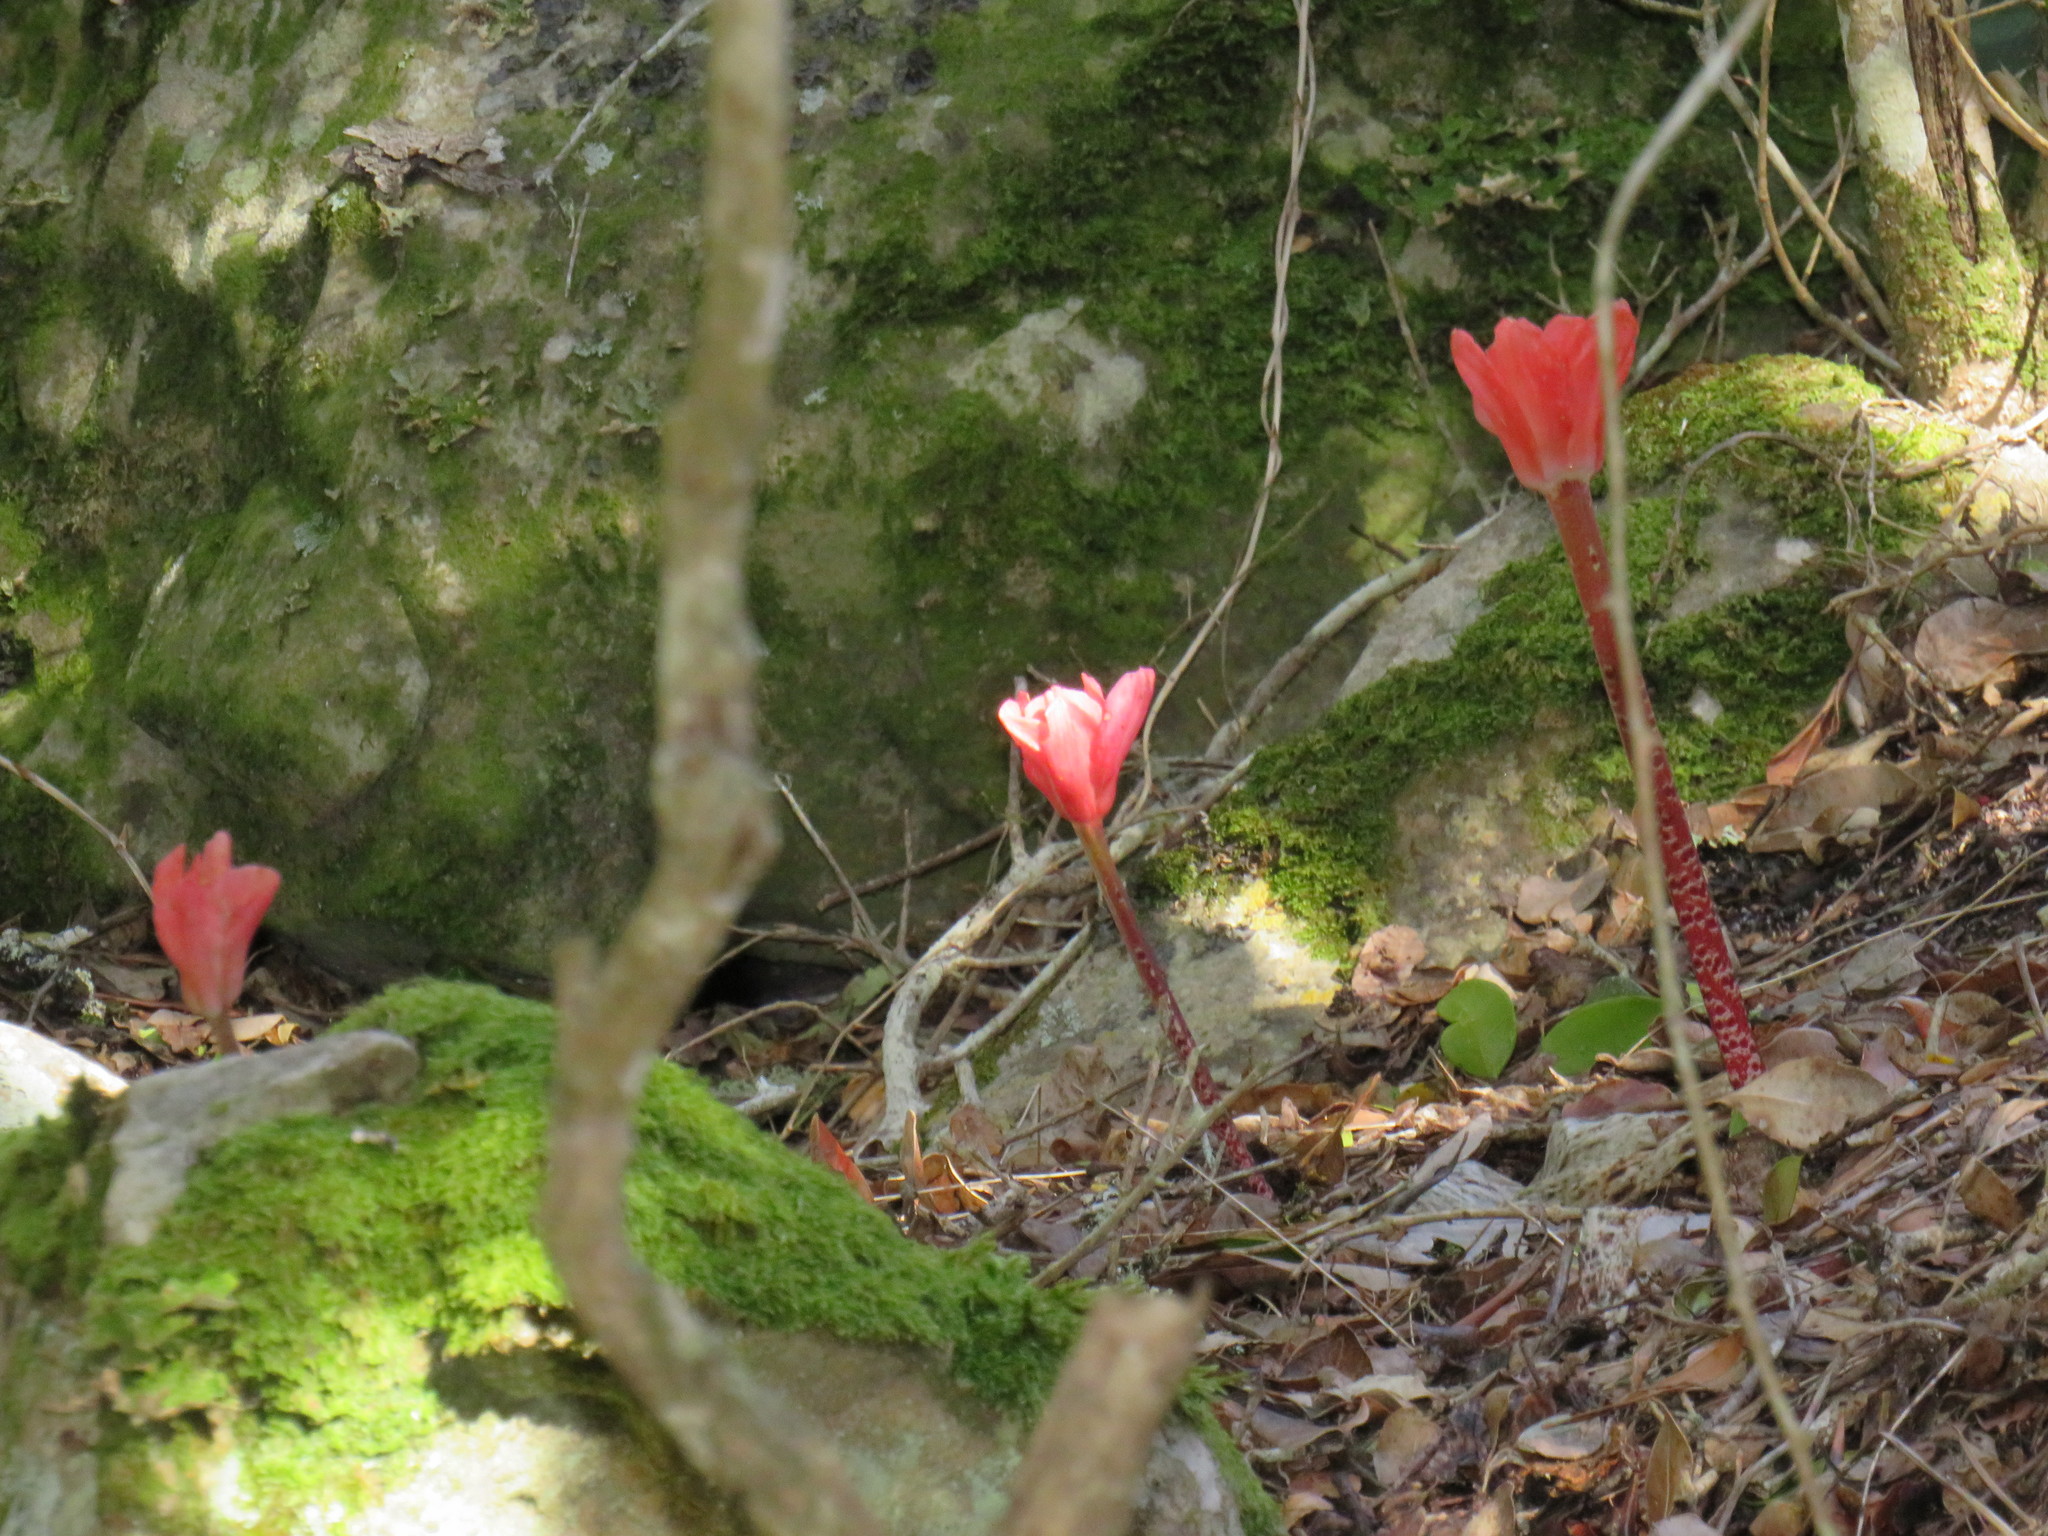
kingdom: Plantae
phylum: Tracheophyta
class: Liliopsida
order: Asparagales
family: Amaryllidaceae
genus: Haemanthus
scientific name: Haemanthus coccineus
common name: Cape-tulip
